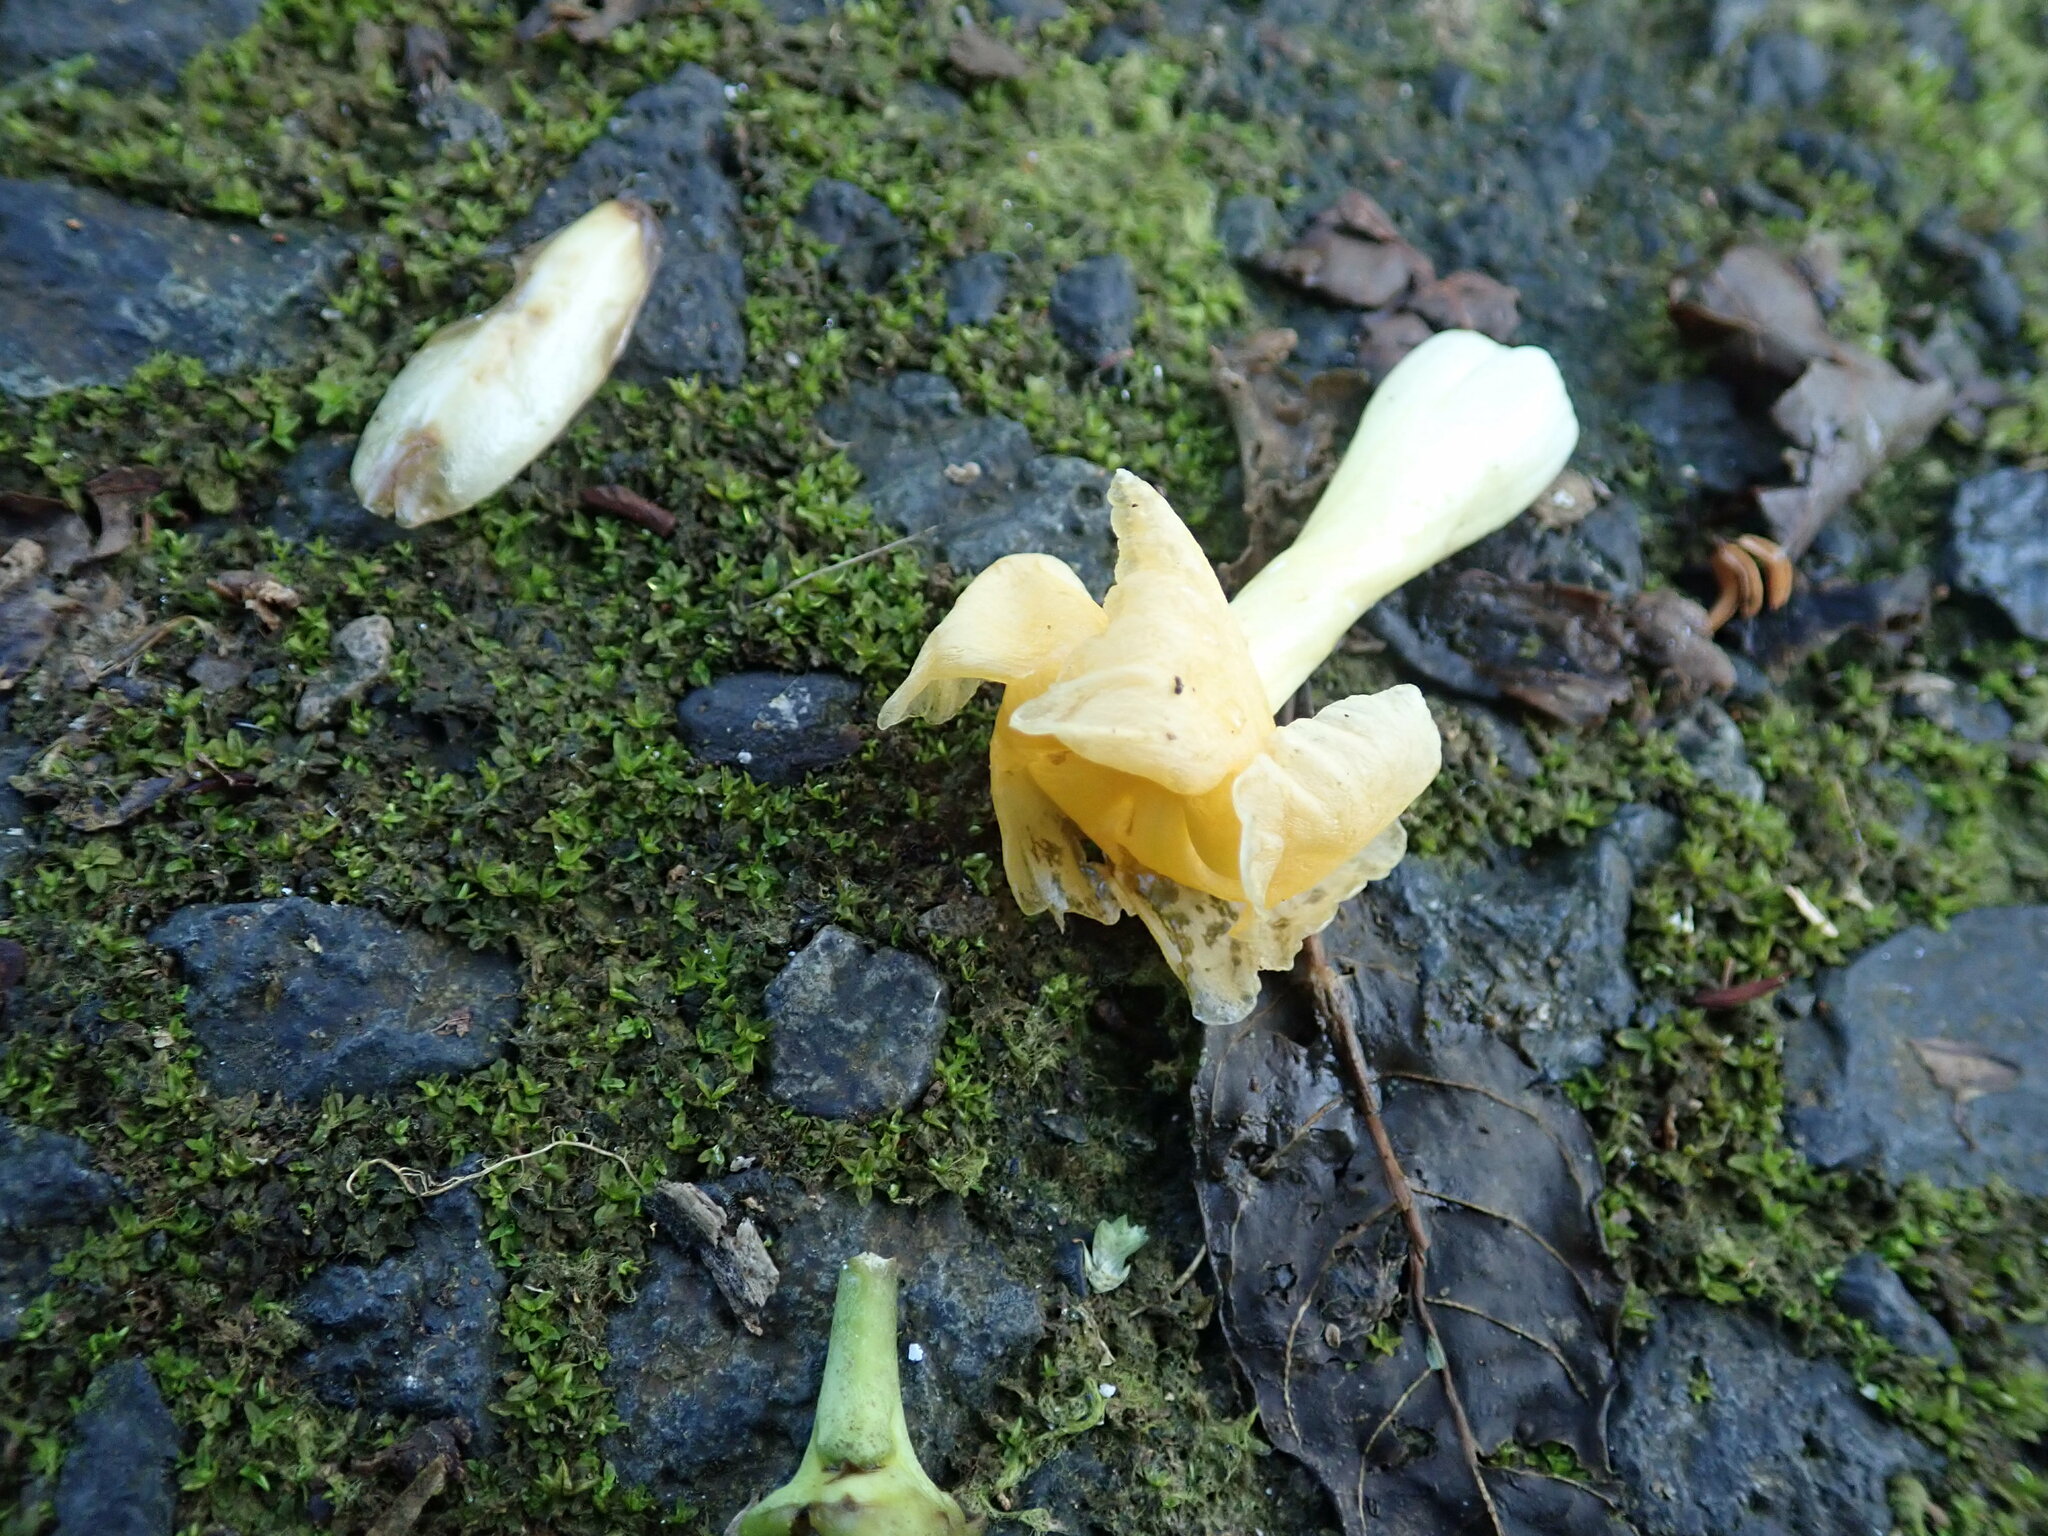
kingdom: Plantae
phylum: Tracheophyta
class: Magnoliopsida
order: Gentianales
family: Apocynaceae
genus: Tabernaemontana
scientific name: Tabernaemontana donnell-smithii
